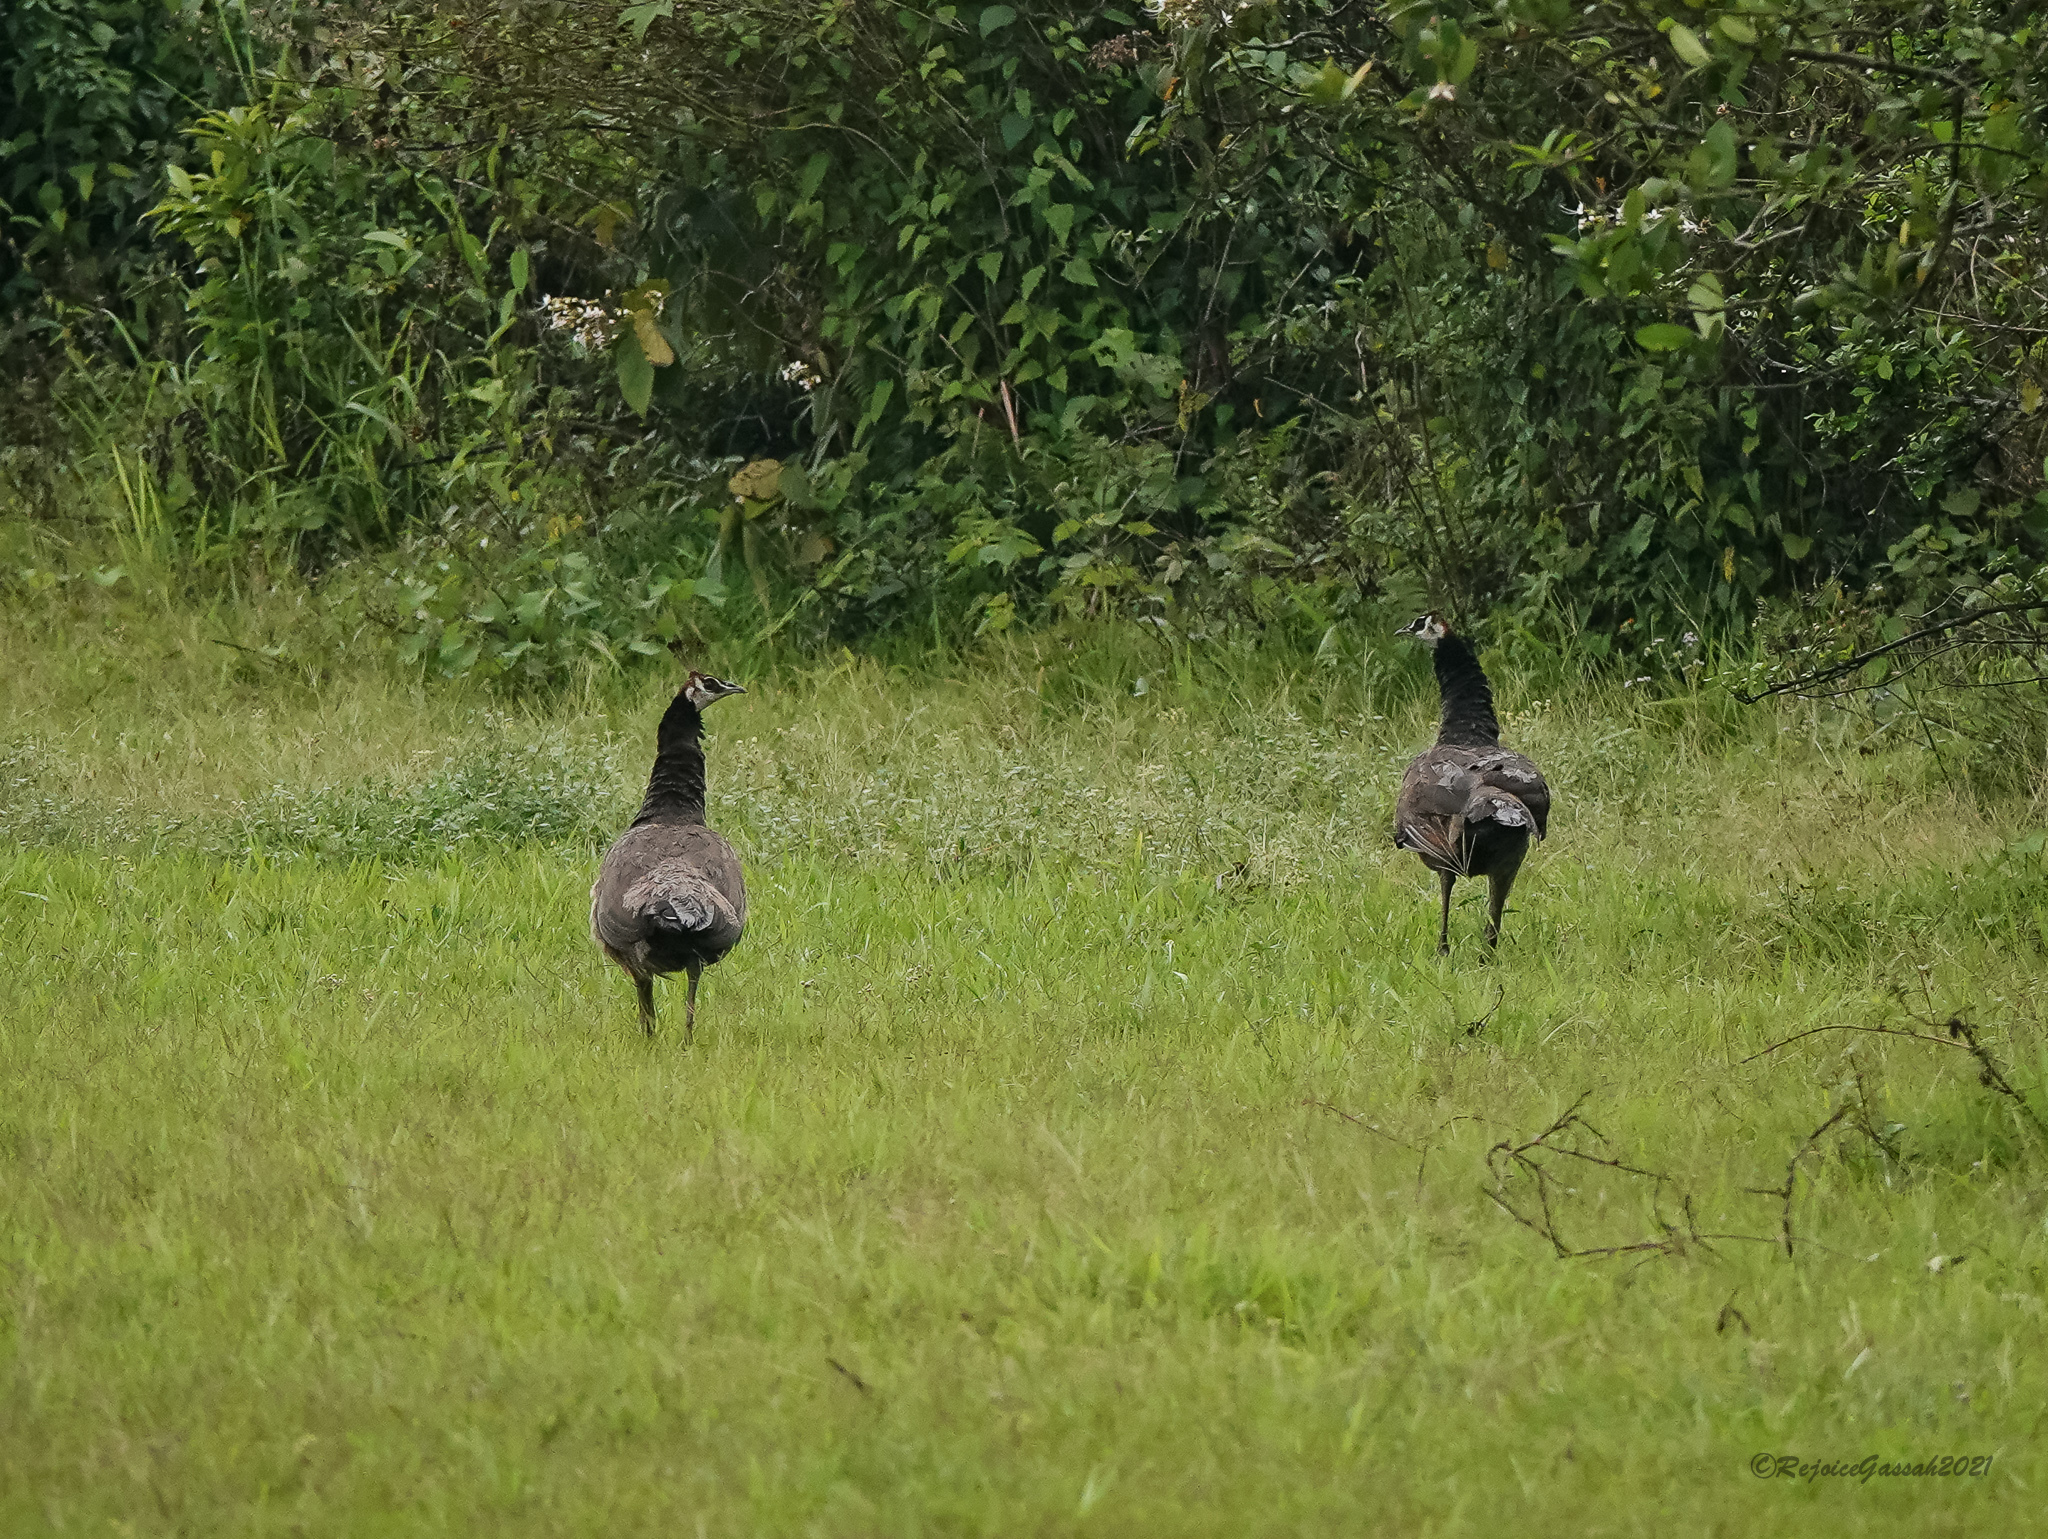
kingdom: Animalia
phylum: Chordata
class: Aves
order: Galliformes
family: Phasianidae
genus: Pavo
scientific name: Pavo cristatus
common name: Indian peafowl
